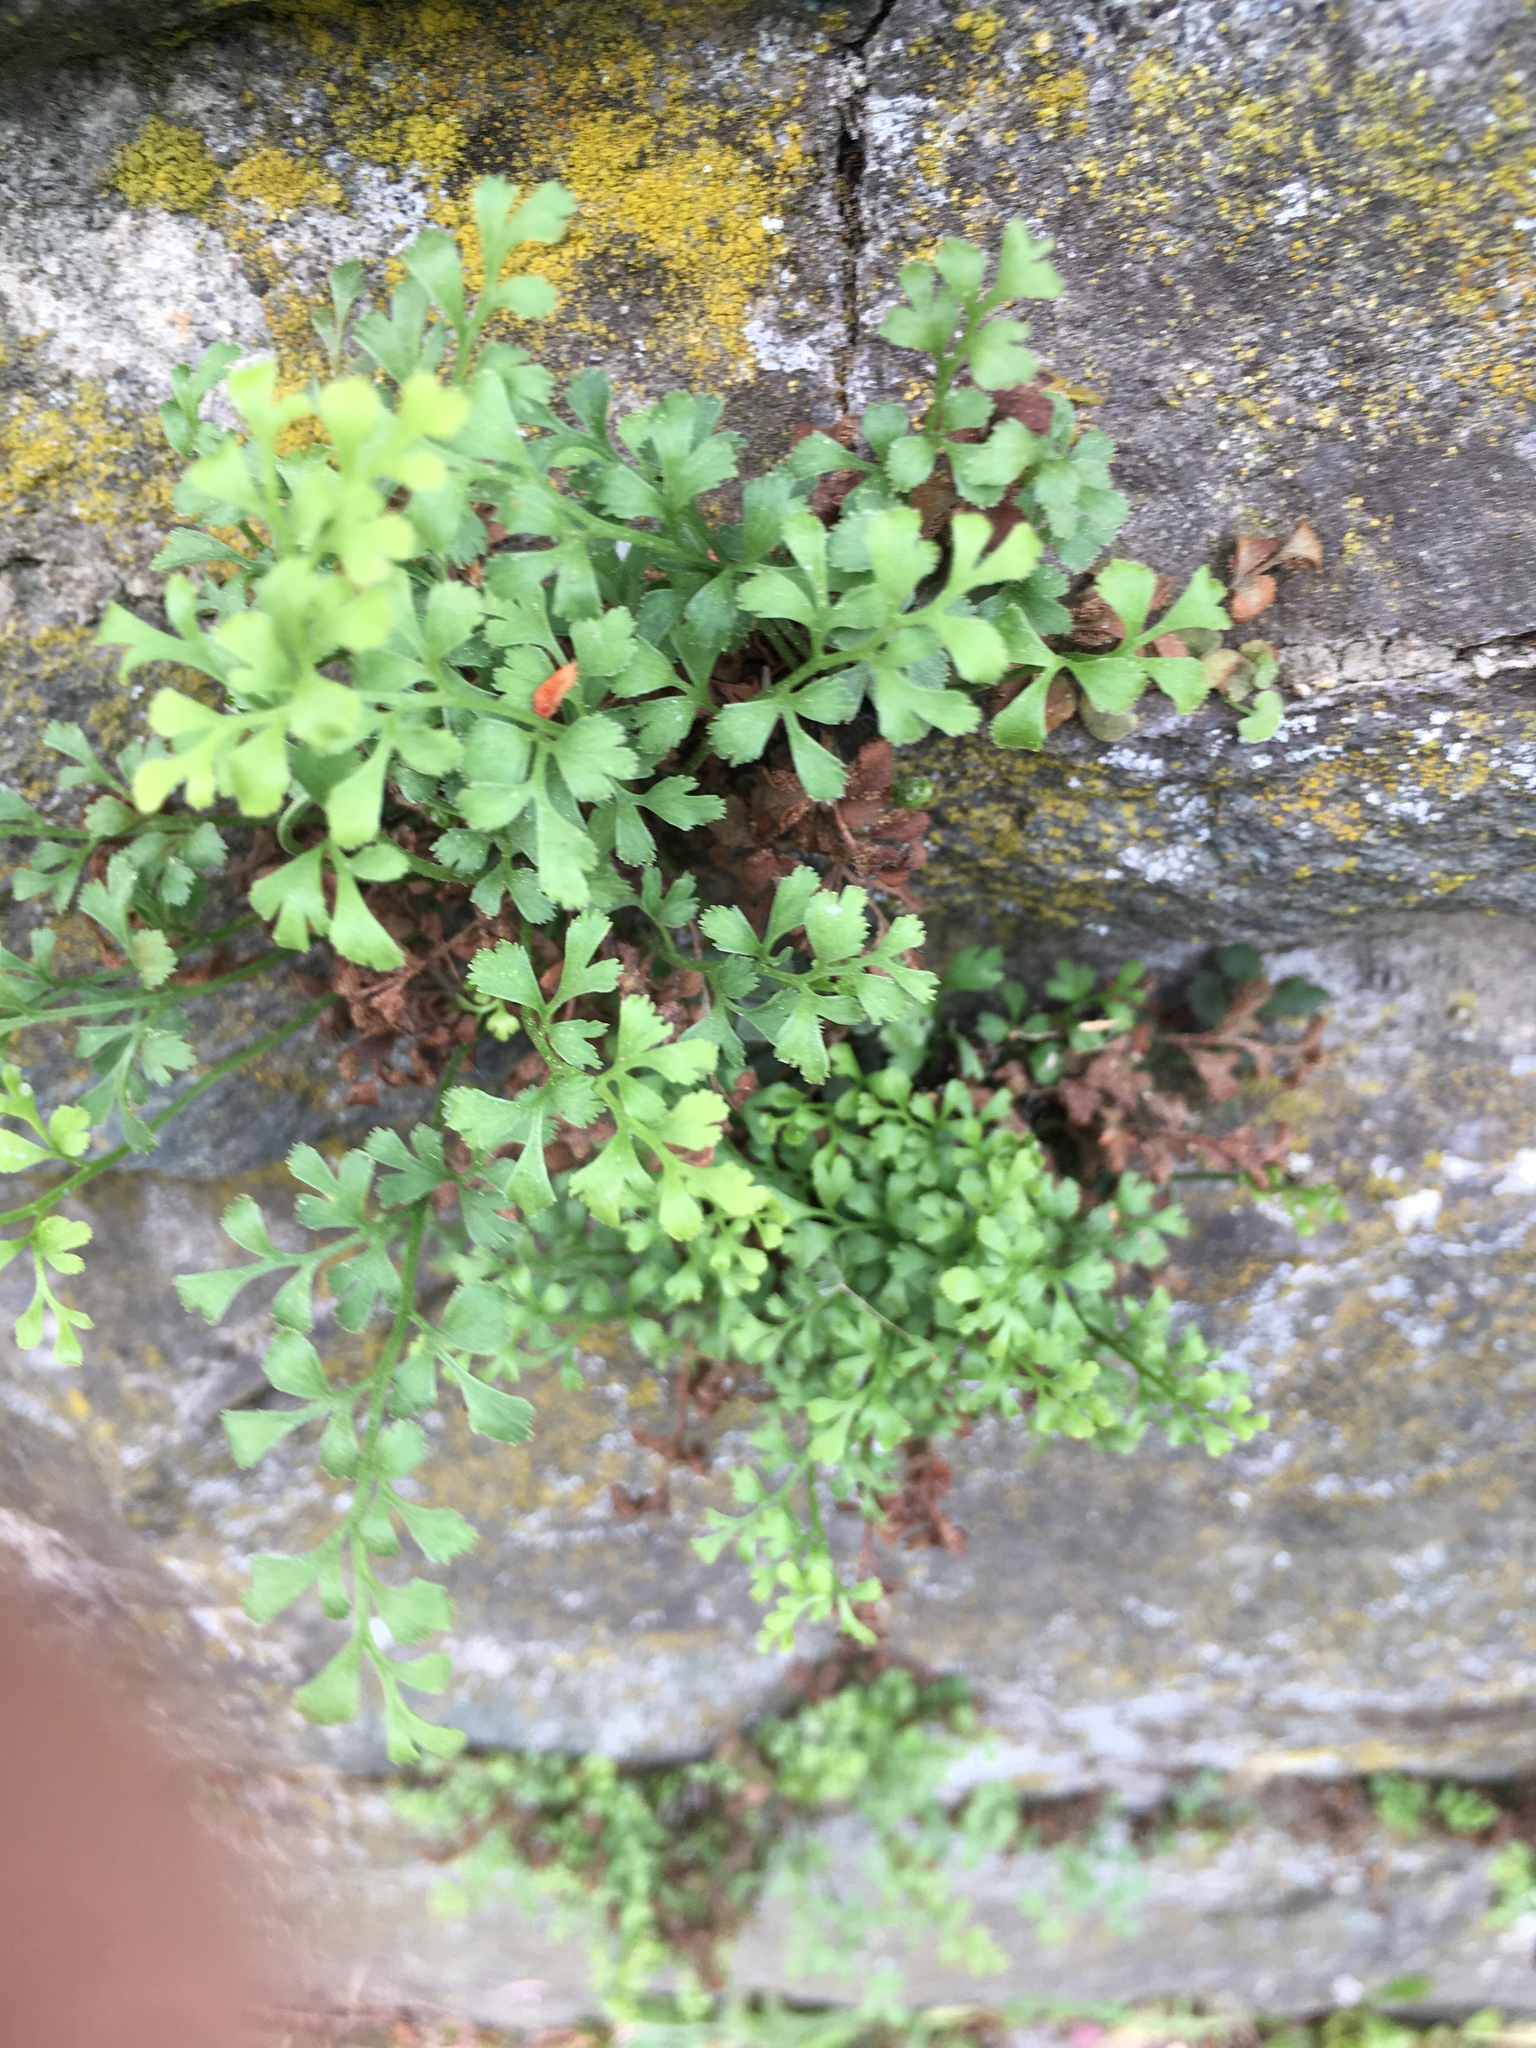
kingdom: Plantae
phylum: Tracheophyta
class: Polypodiopsida
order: Polypodiales
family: Aspleniaceae
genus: Asplenium
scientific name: Asplenium ruta-muraria
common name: Wall-rue
